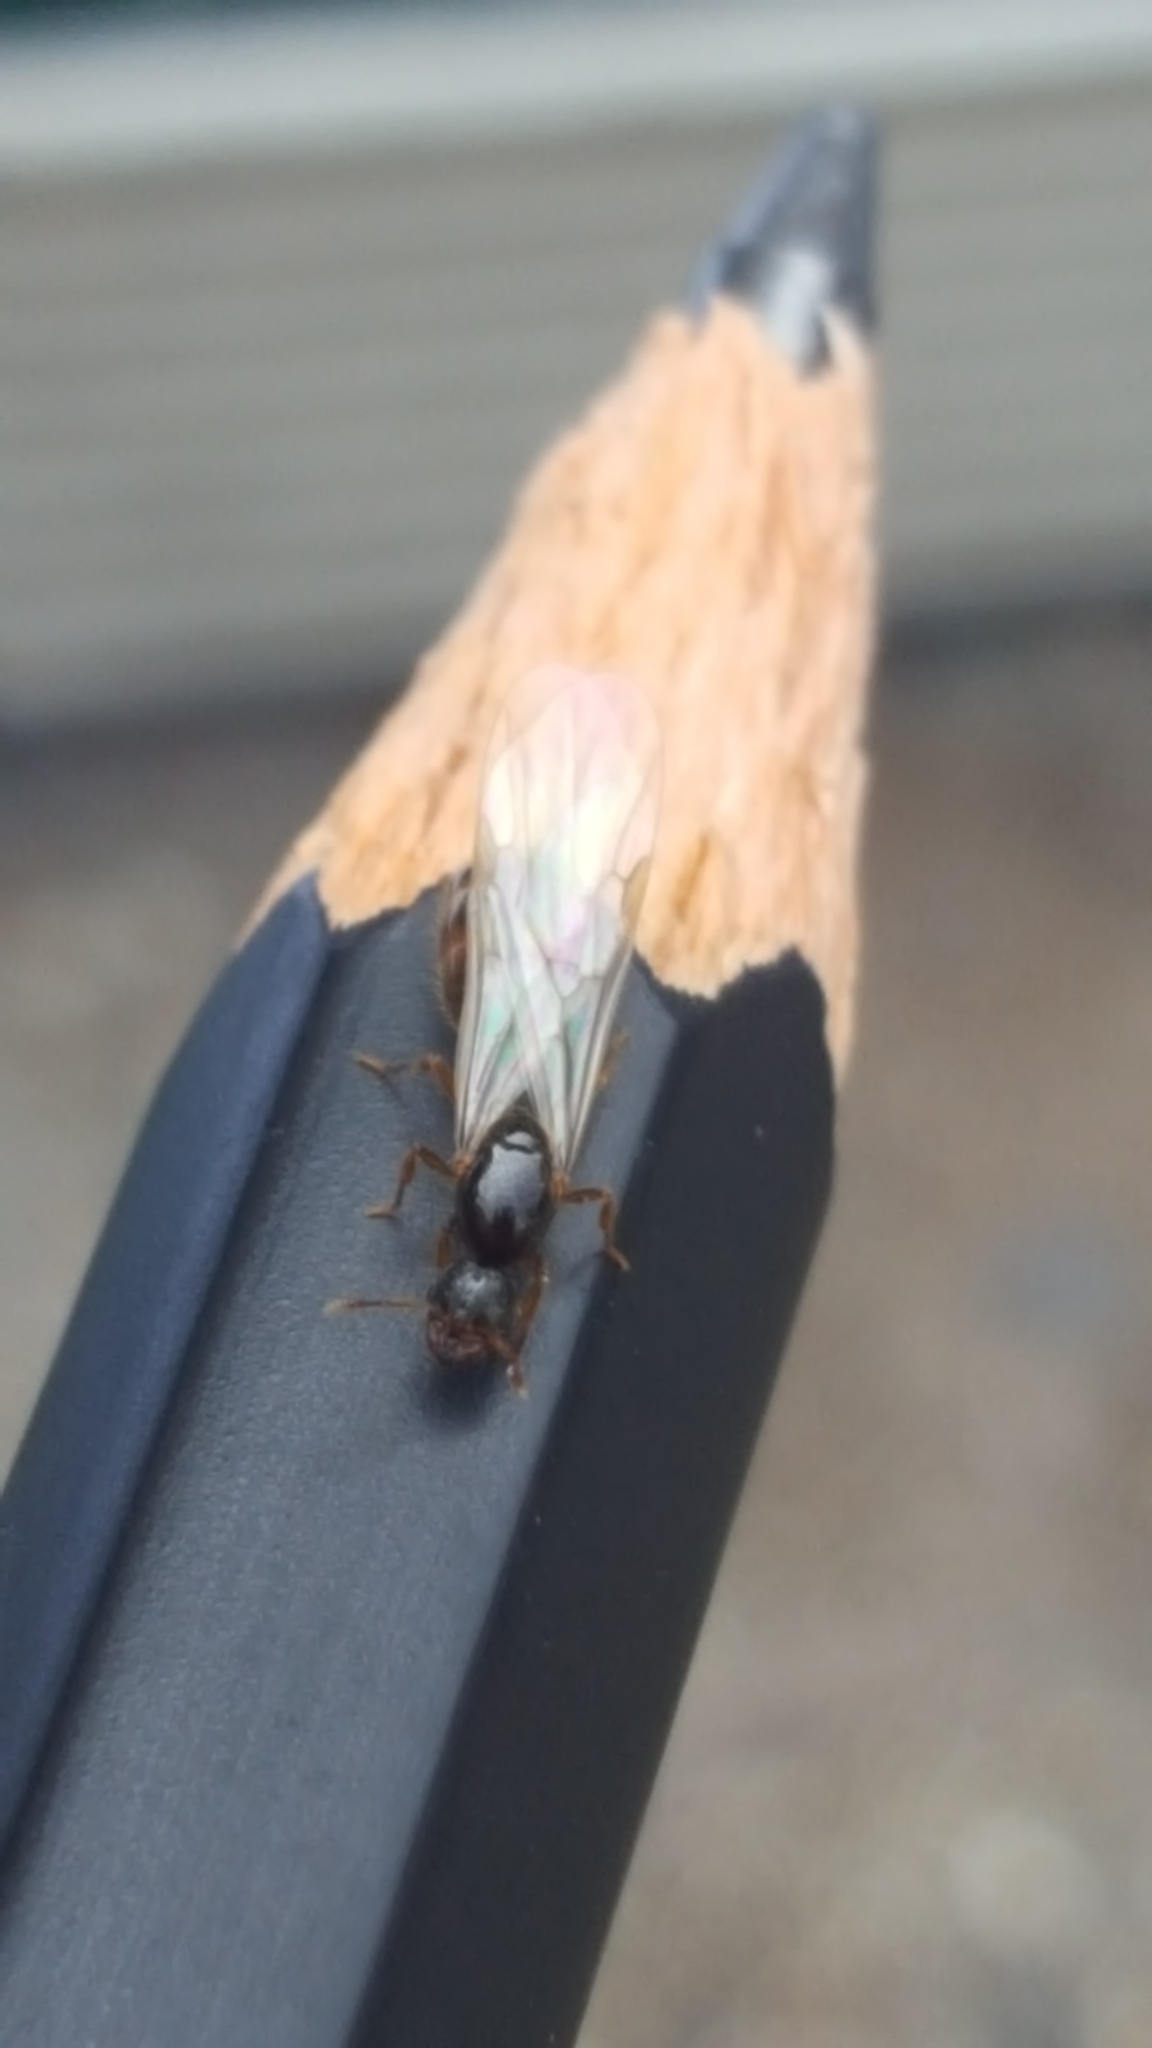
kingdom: Animalia
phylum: Arthropoda
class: Insecta
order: Hymenoptera
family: Formicidae
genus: Solenopsis
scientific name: Solenopsis fugax
